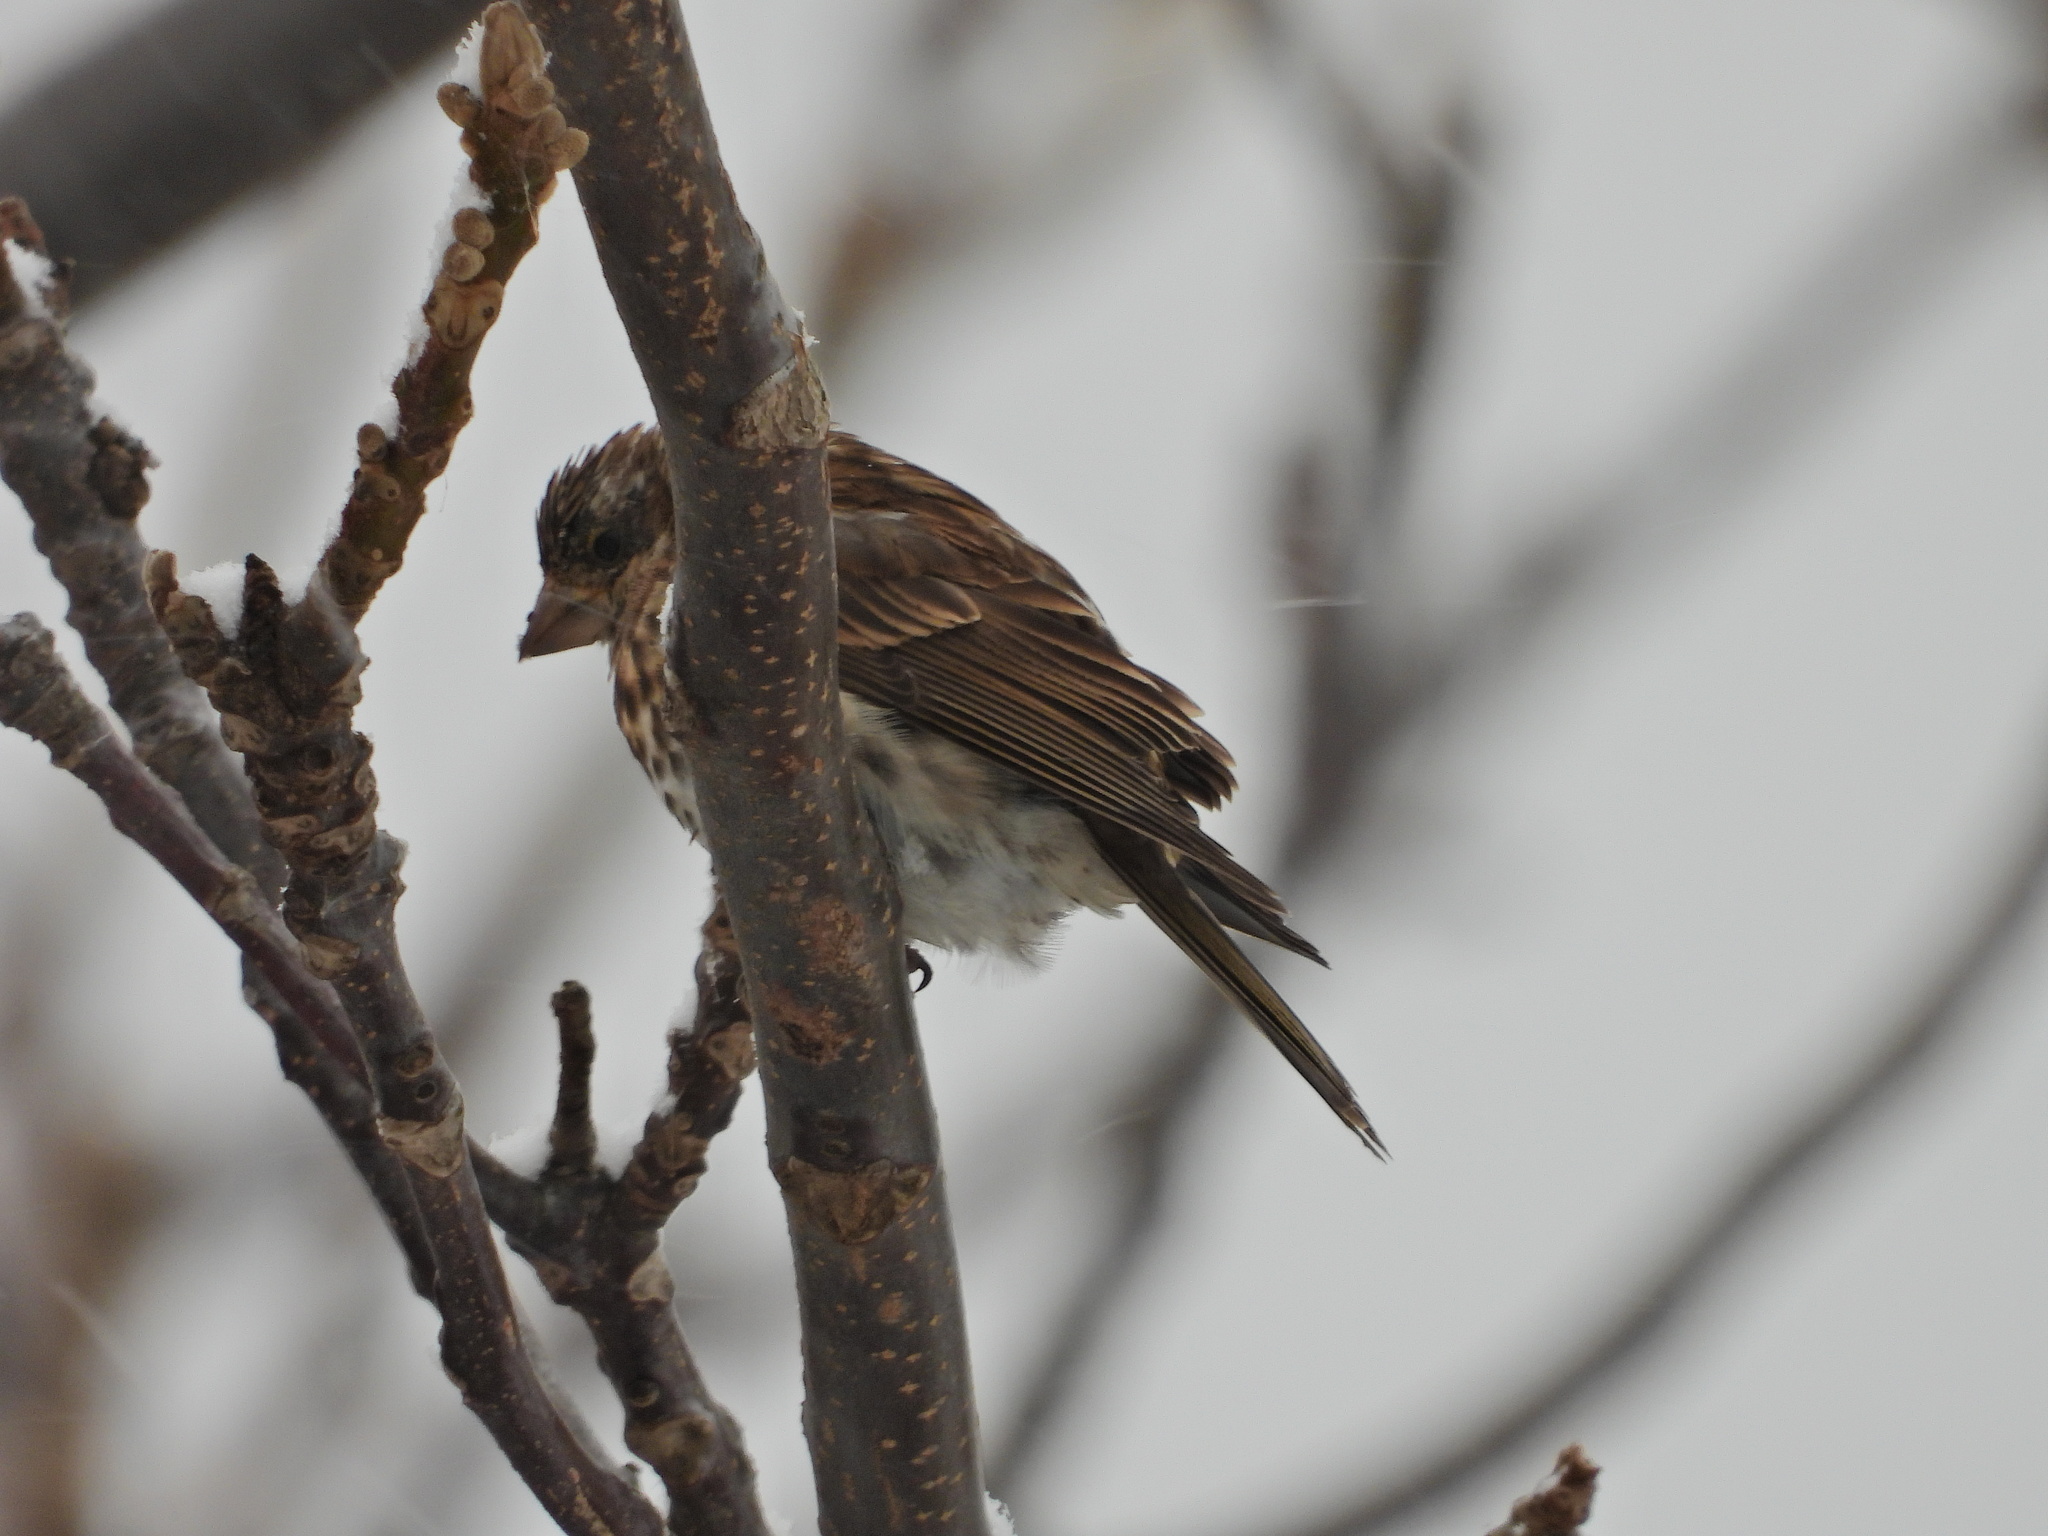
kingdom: Animalia
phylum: Chordata
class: Aves
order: Passeriformes
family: Fringillidae
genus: Haemorhous
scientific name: Haemorhous purpureus
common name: Purple finch
